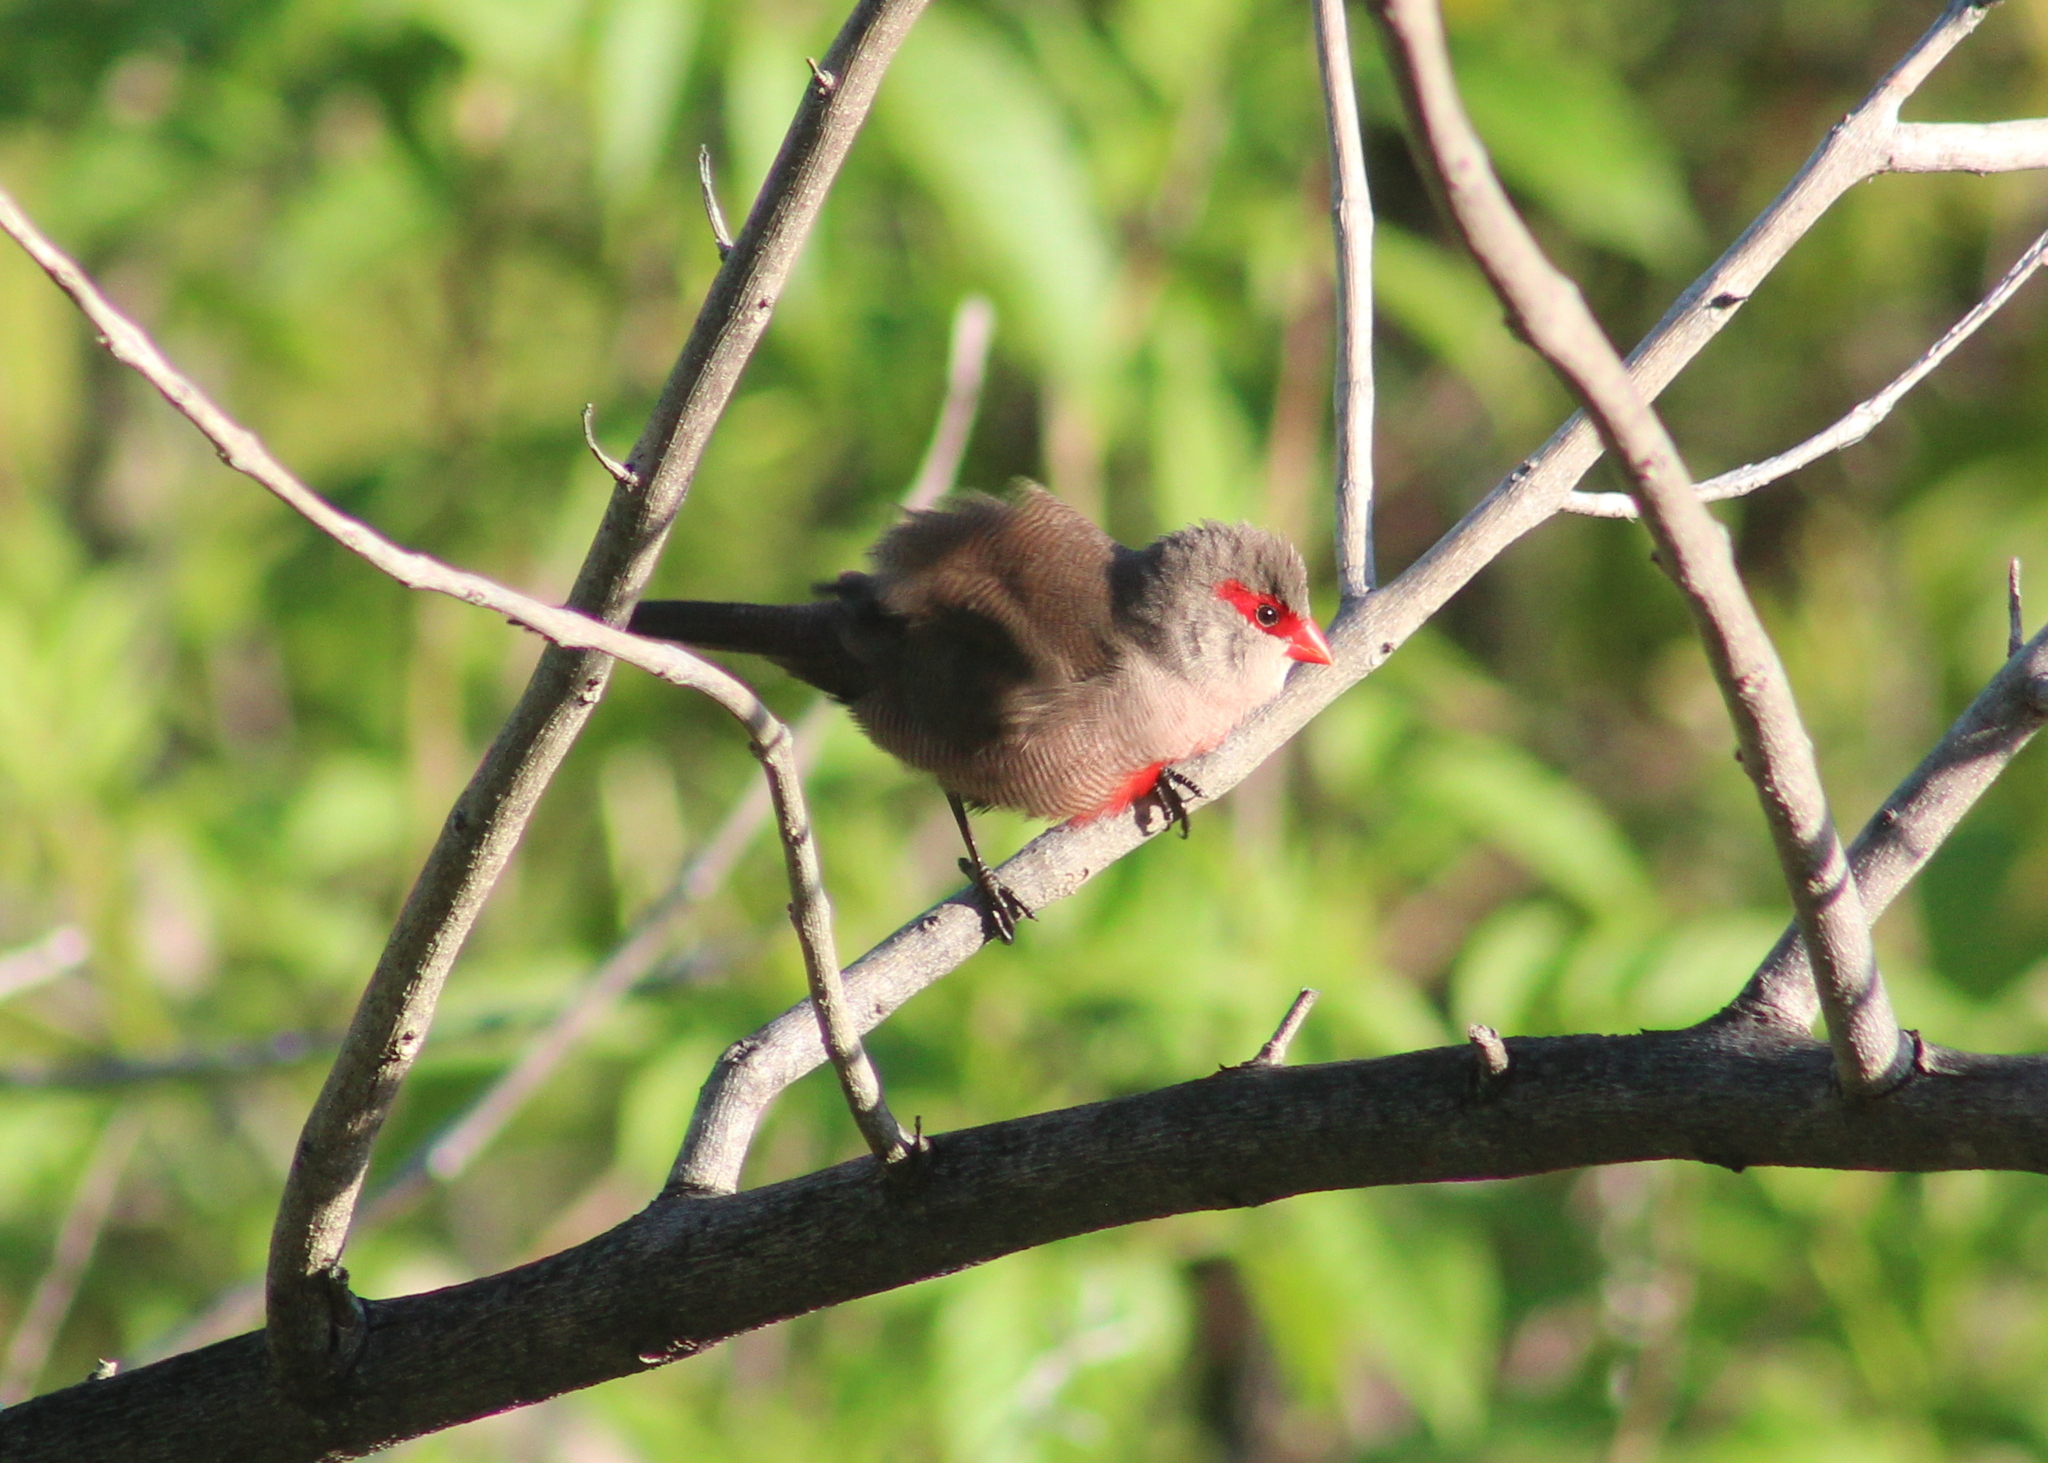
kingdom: Animalia
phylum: Chordata
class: Aves
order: Passeriformes
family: Estrildidae
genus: Estrilda
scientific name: Estrilda astrild
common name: Common waxbill
